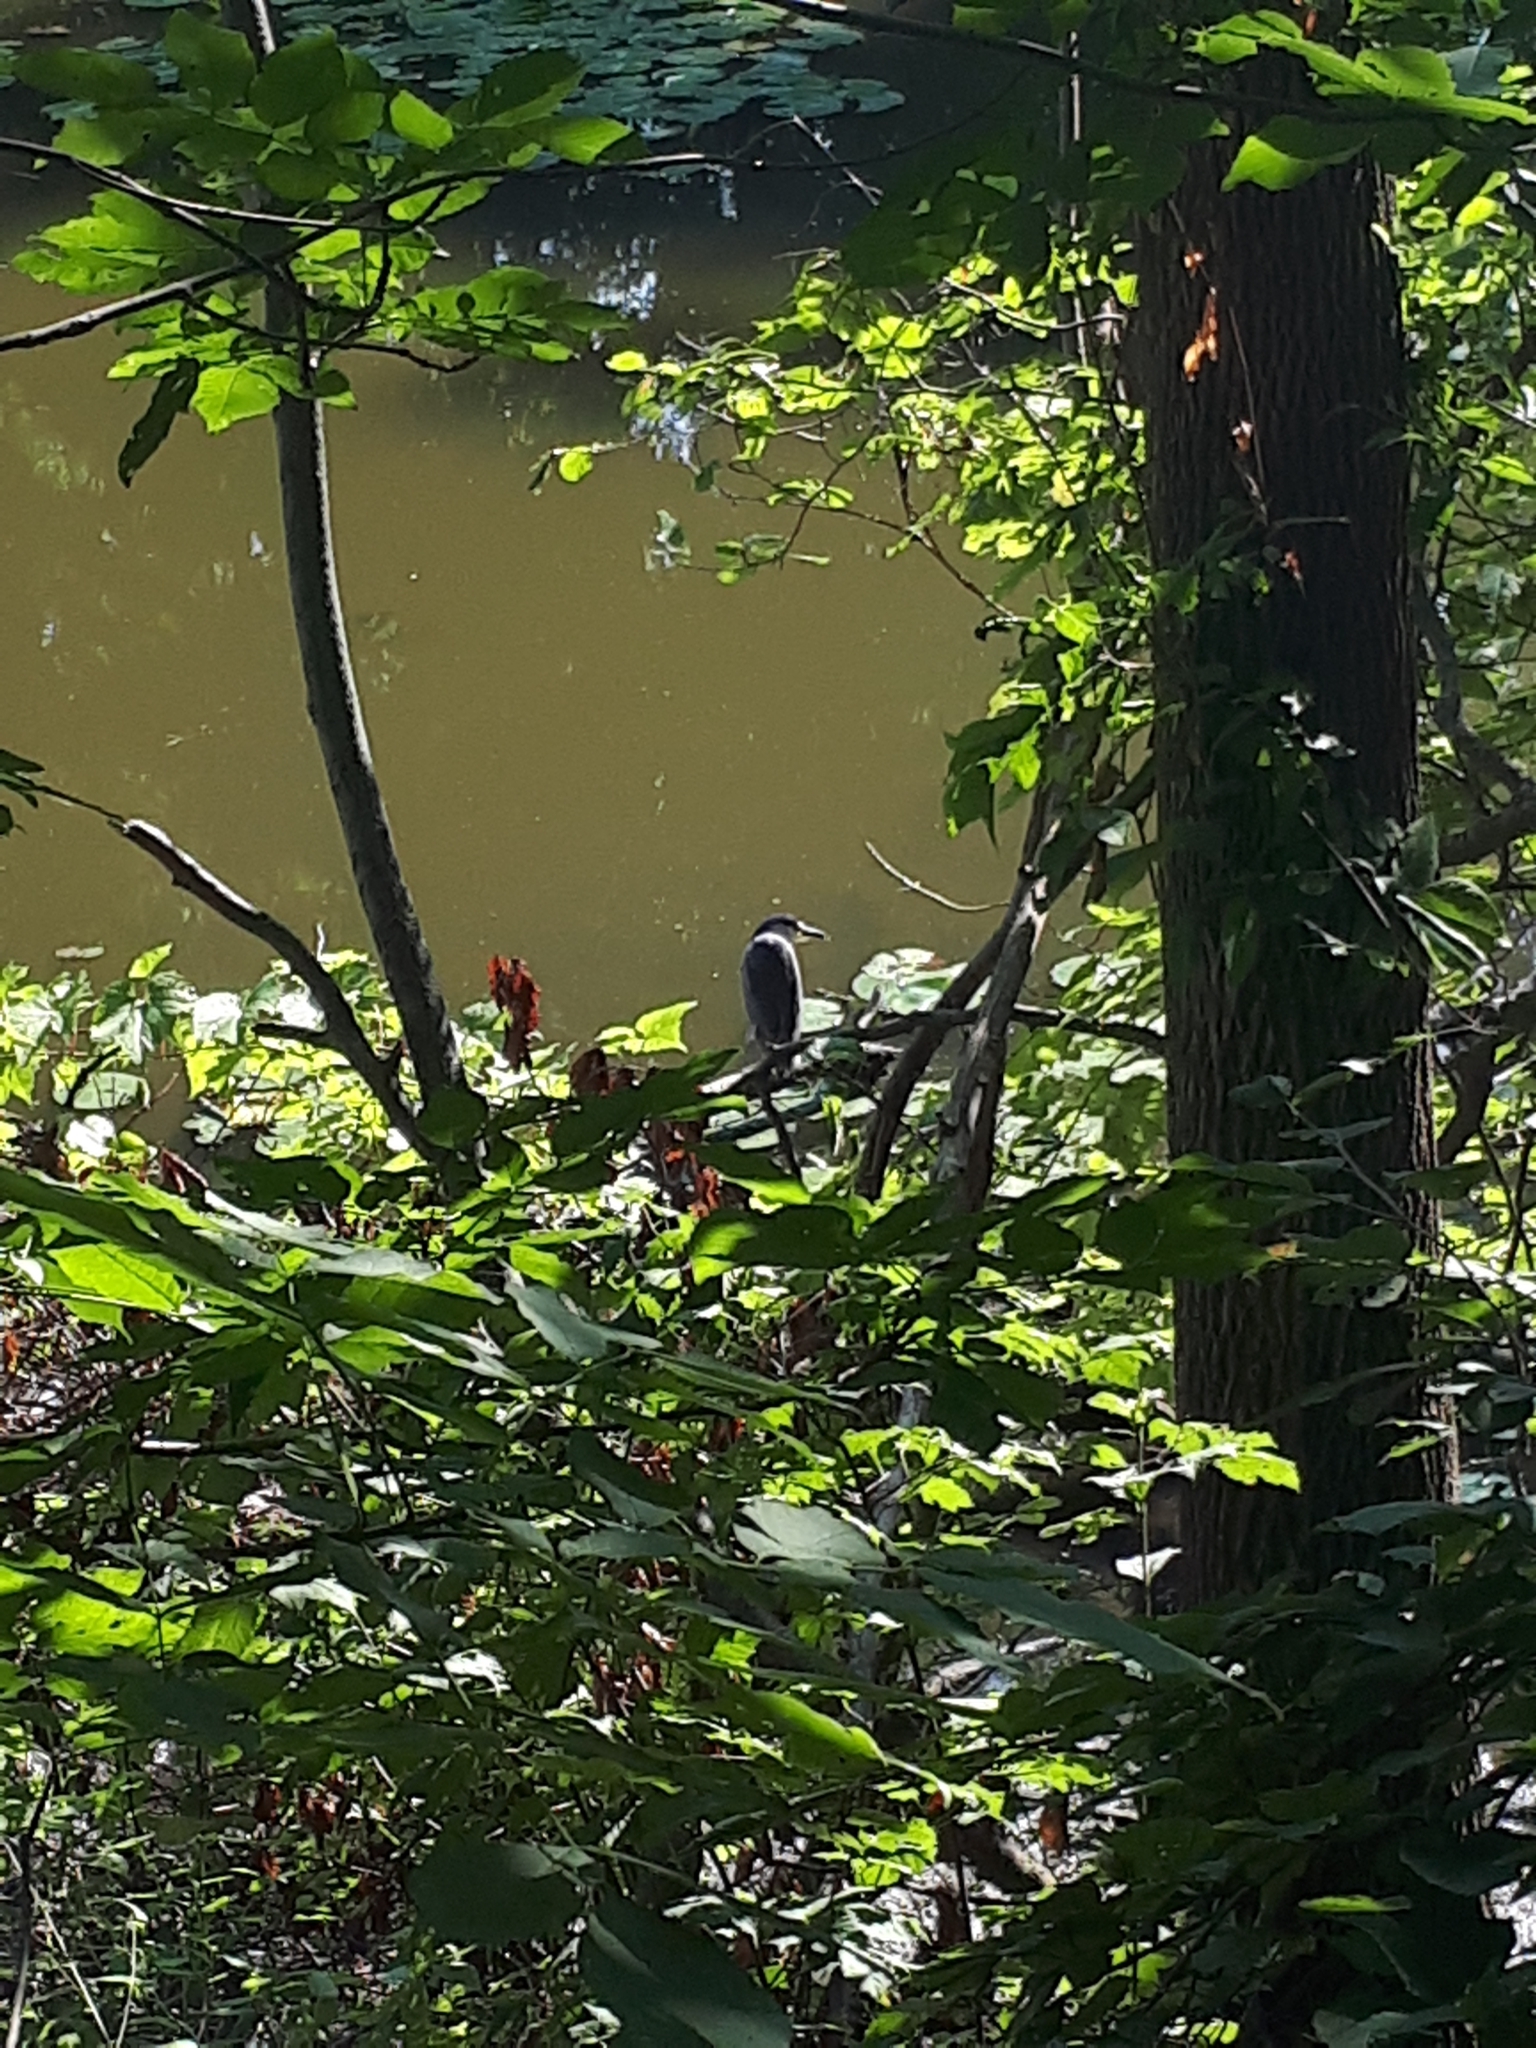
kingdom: Animalia
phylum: Chordata
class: Aves
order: Pelecaniformes
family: Ardeidae
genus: Nycticorax
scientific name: Nycticorax nycticorax
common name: Black-crowned night heron
